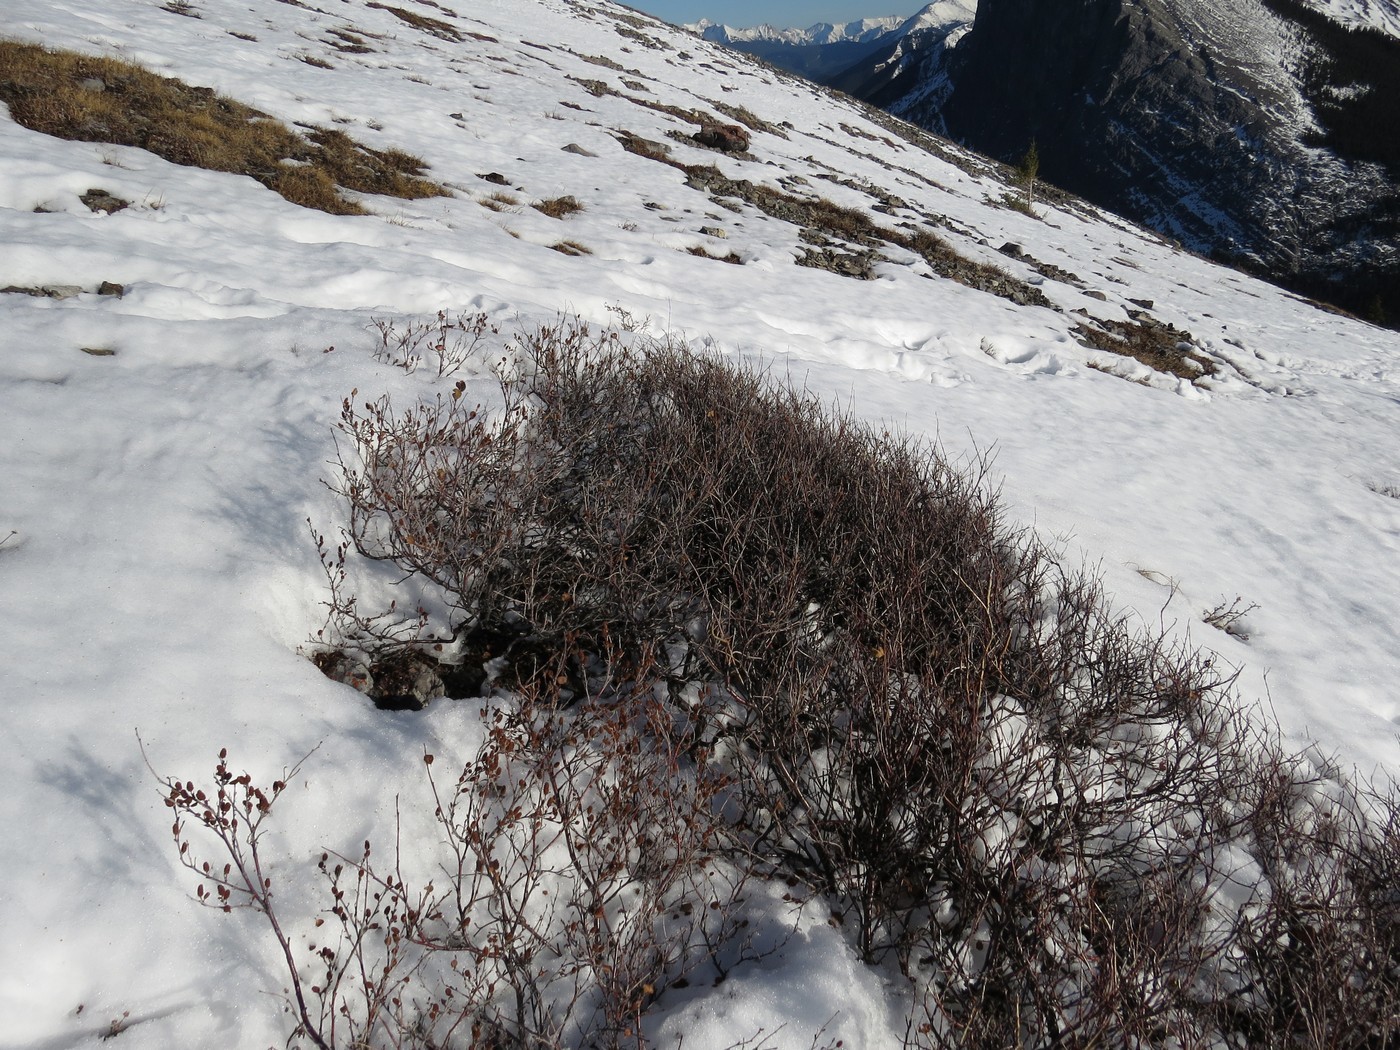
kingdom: Plantae
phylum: Tracheophyta
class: Magnoliopsida
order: Fagales
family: Betulaceae
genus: Betula
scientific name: Betula glandulosa
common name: Dwarf birch
